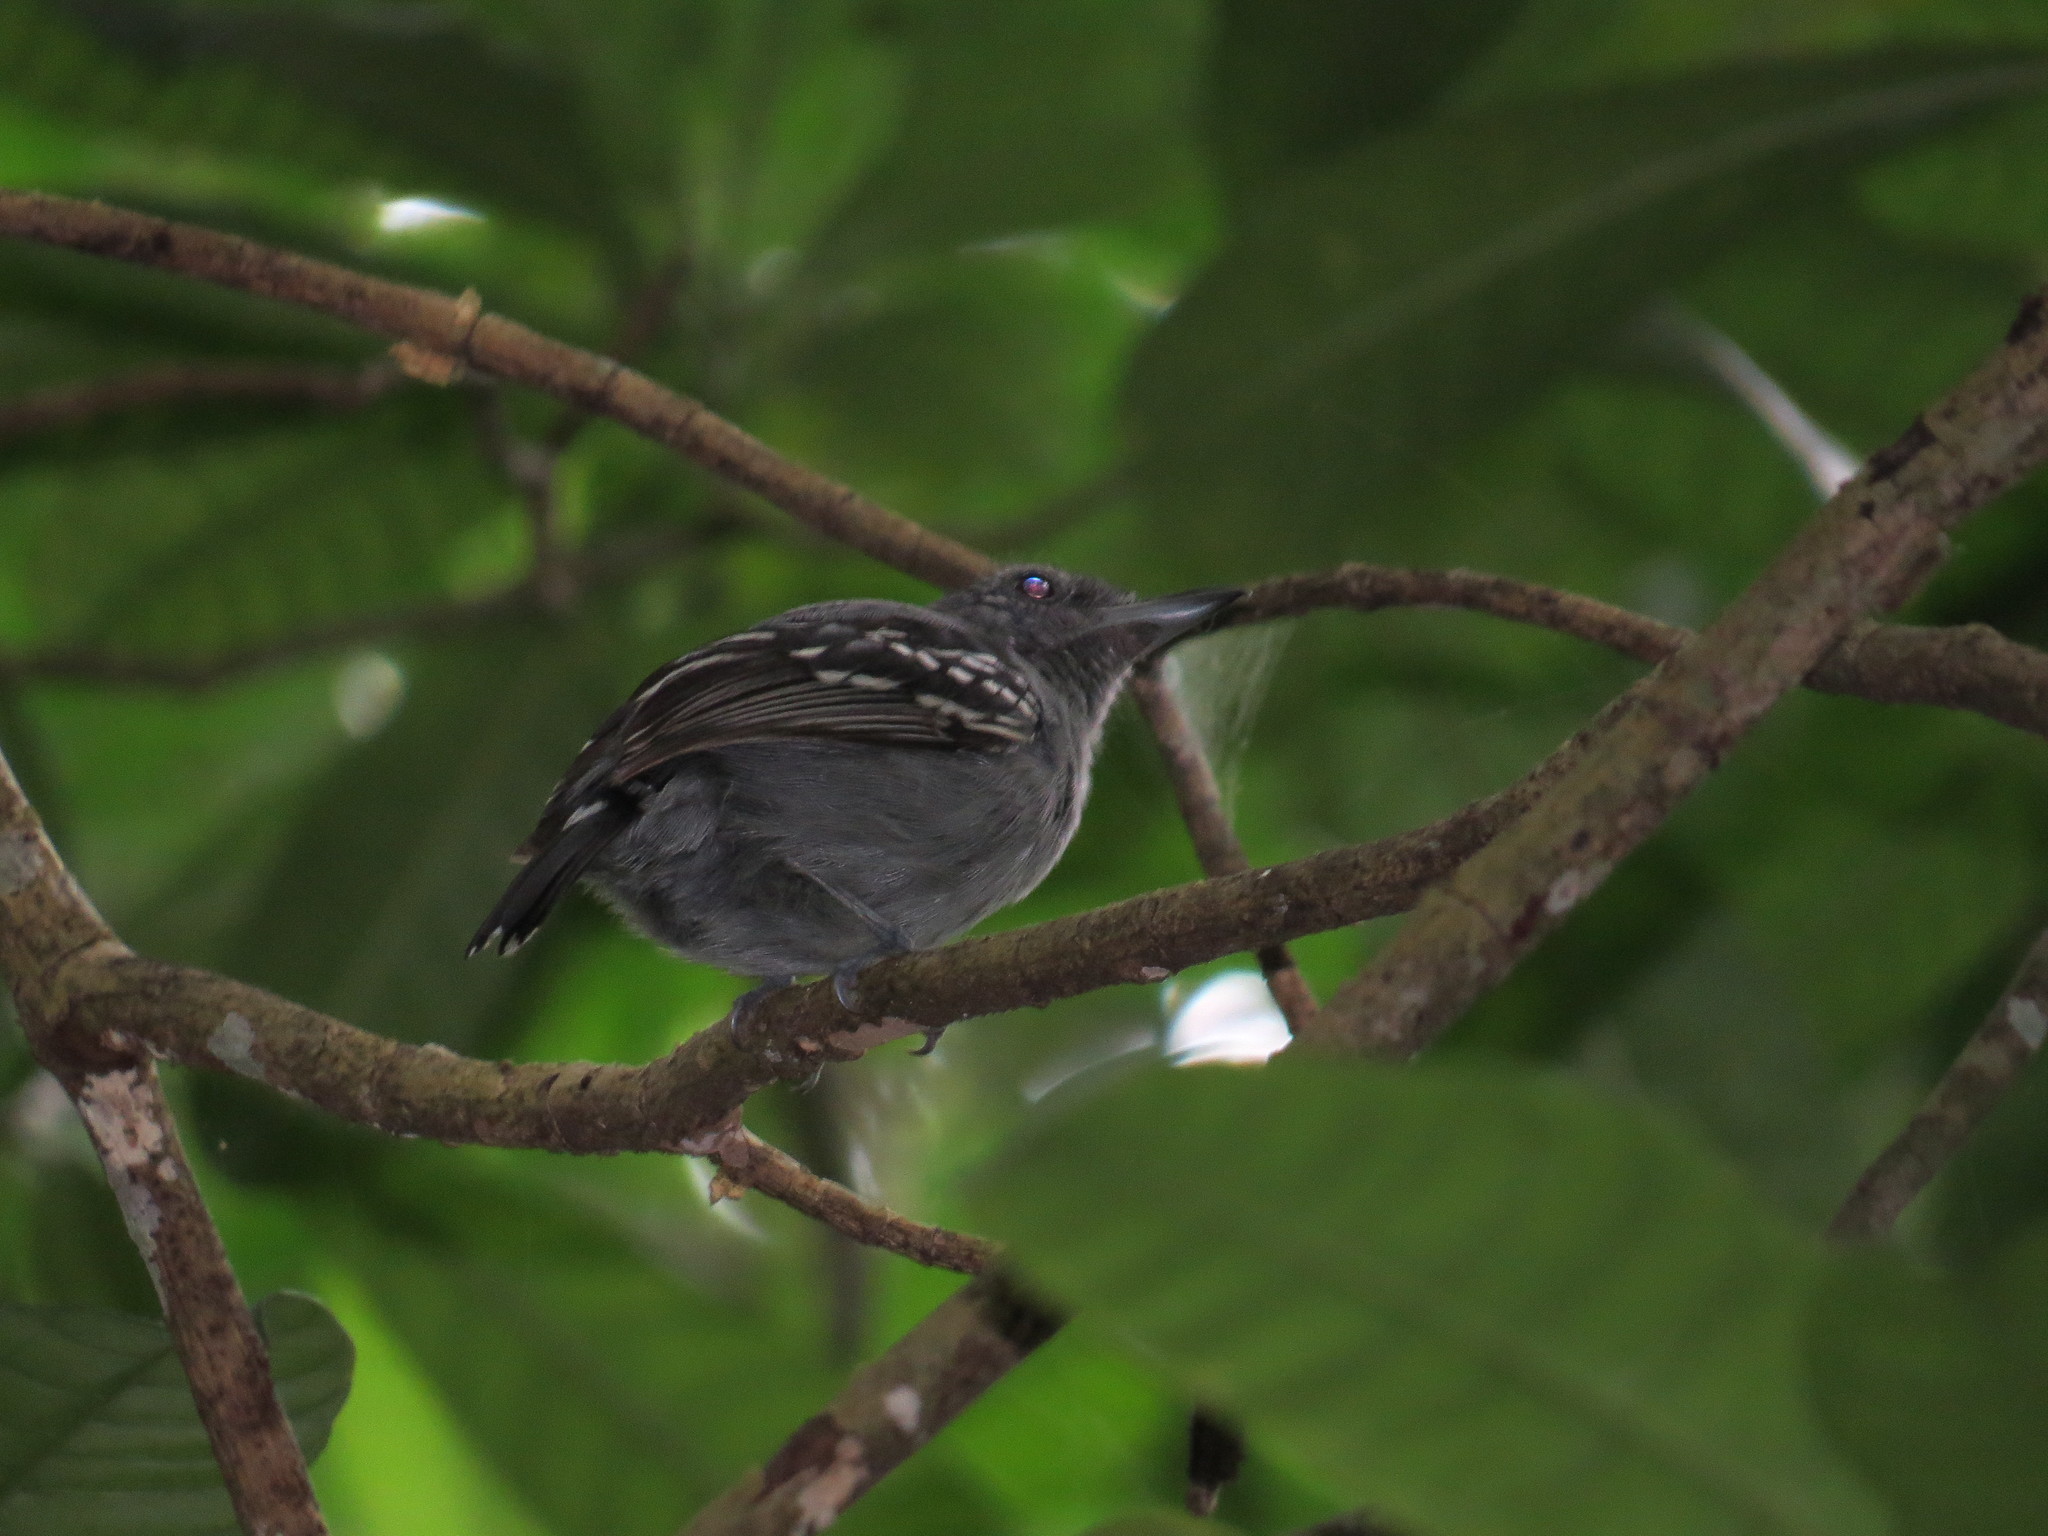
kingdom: Animalia
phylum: Chordata
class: Aves
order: Passeriformes
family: Thamnophilidae
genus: Thamnophilus
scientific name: Thamnophilus atrinucha
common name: Black-crowned antshrike
